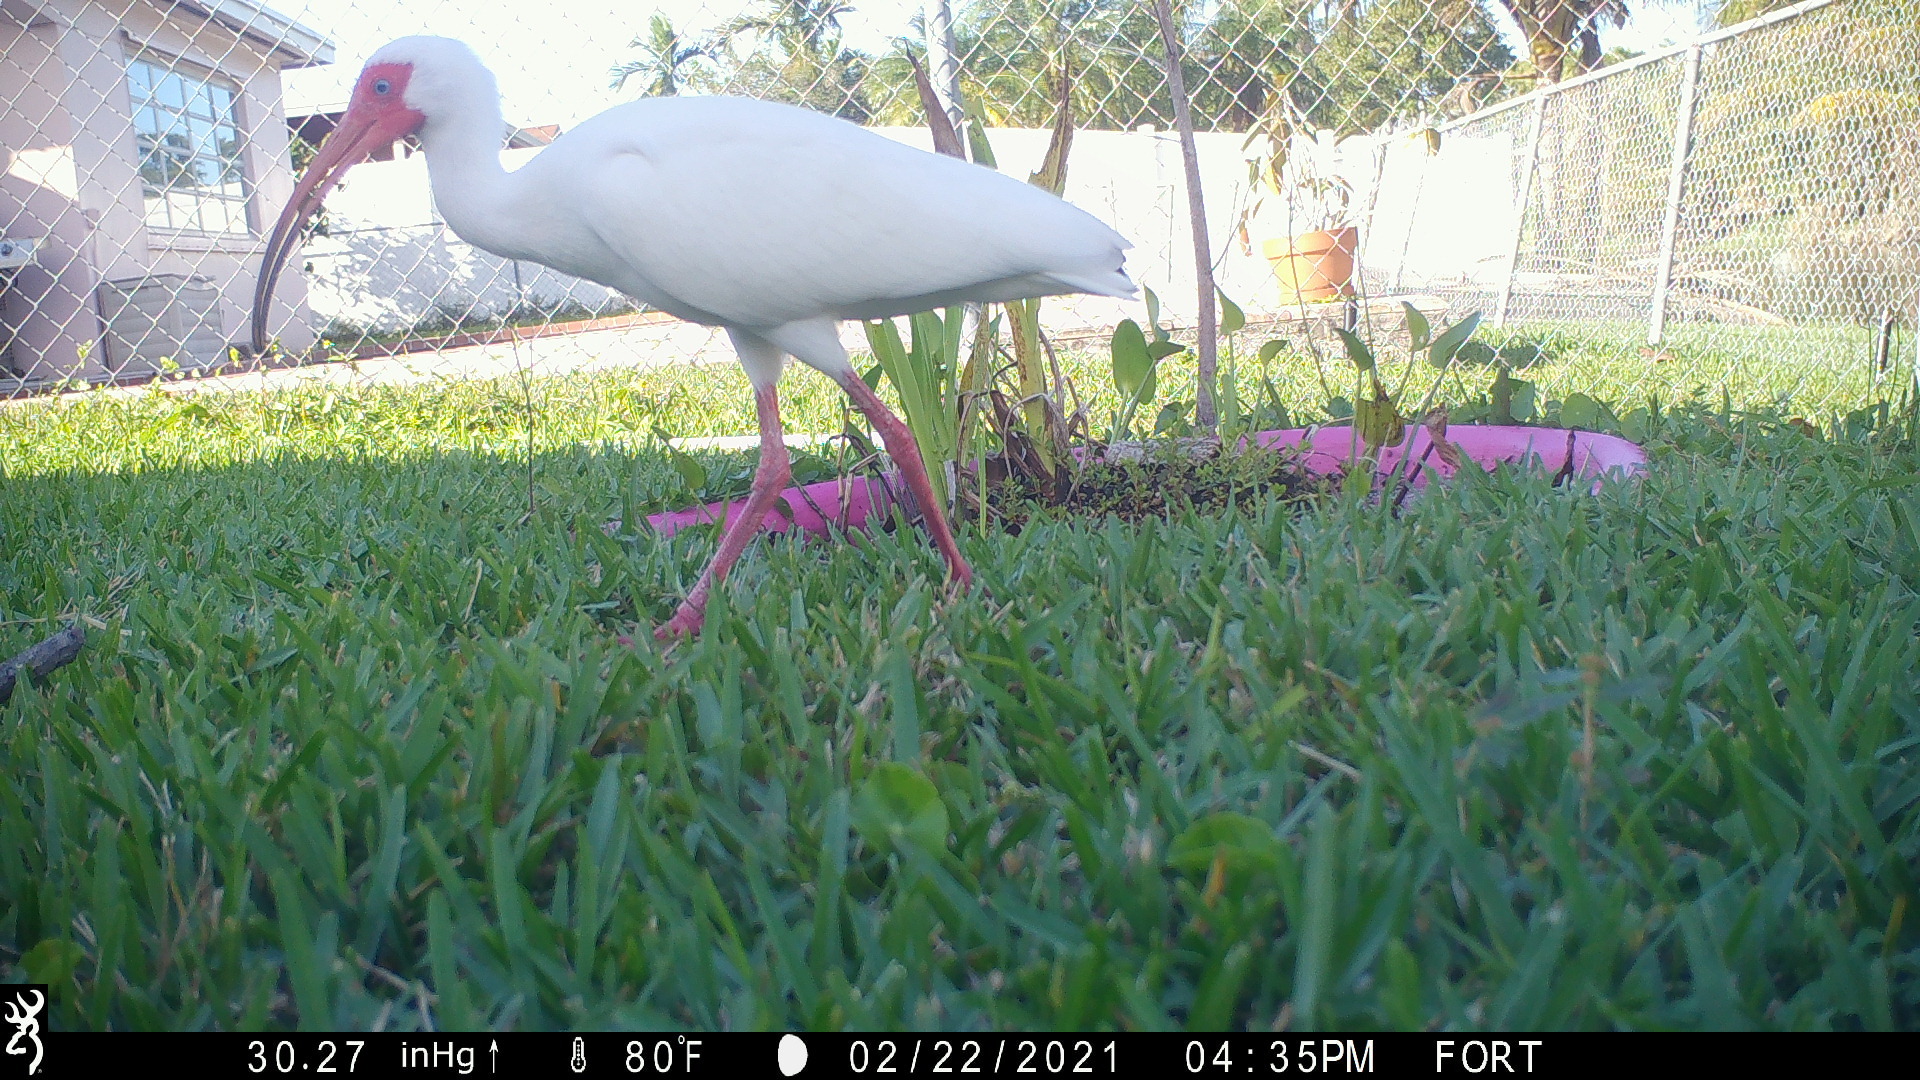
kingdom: Animalia
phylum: Chordata
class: Aves
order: Pelecaniformes
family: Threskiornithidae
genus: Eudocimus
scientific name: Eudocimus albus
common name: White ibis
